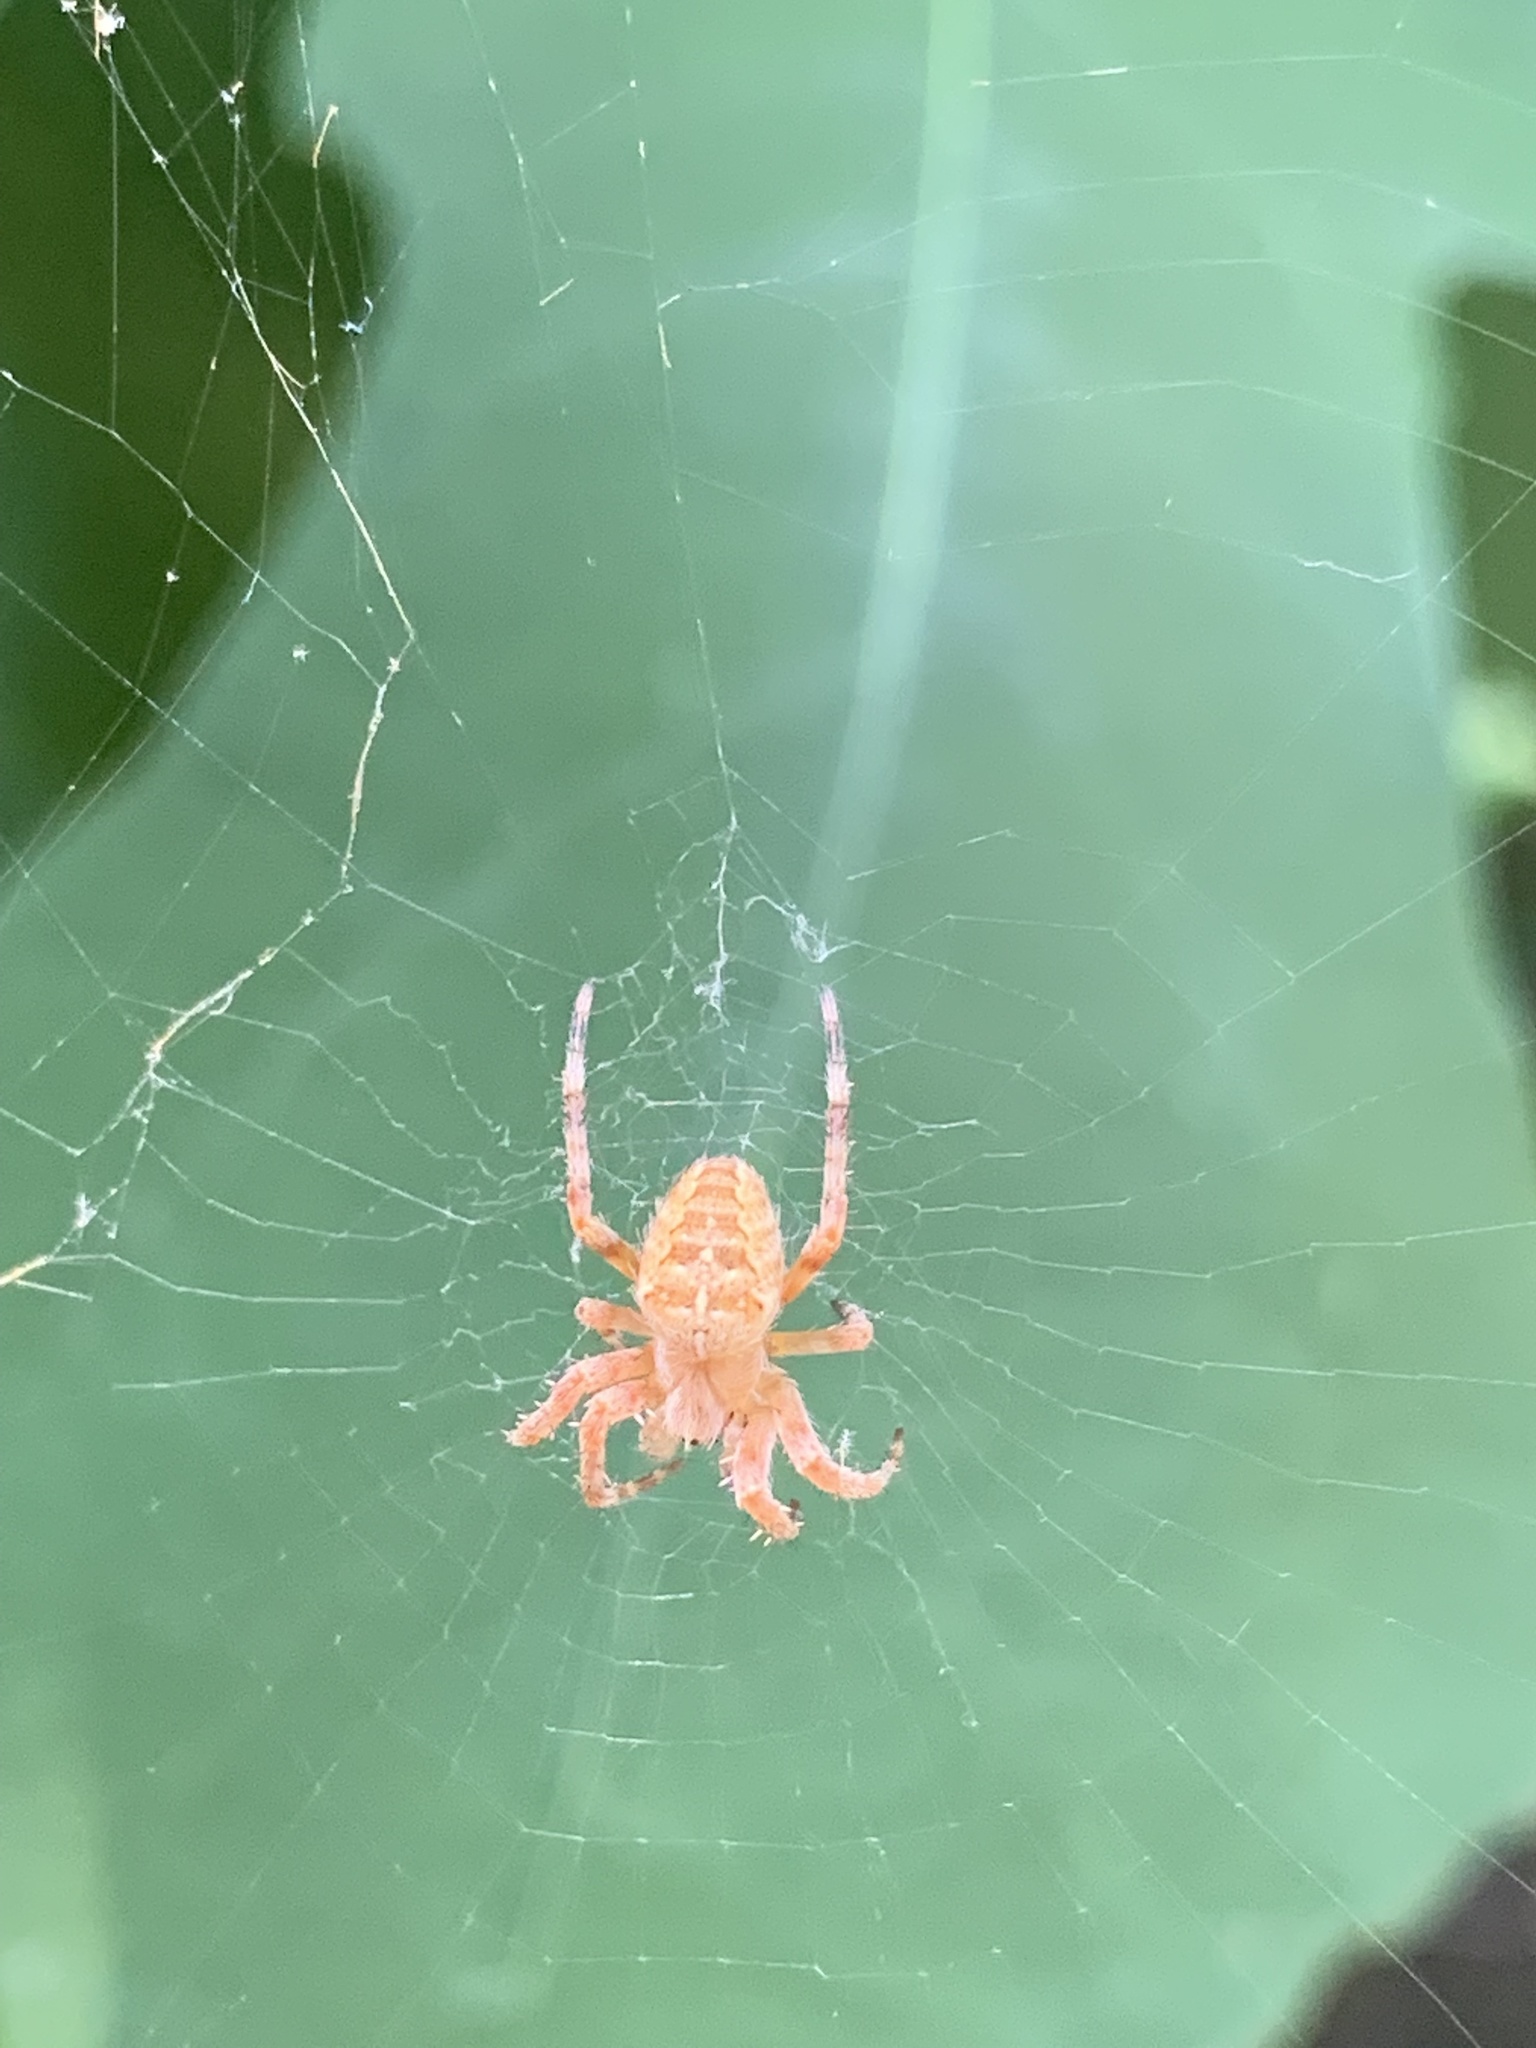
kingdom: Animalia
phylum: Arthropoda
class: Arachnida
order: Araneae
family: Araneidae
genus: Araneus
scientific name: Araneus diadematus
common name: Cross orbweaver
